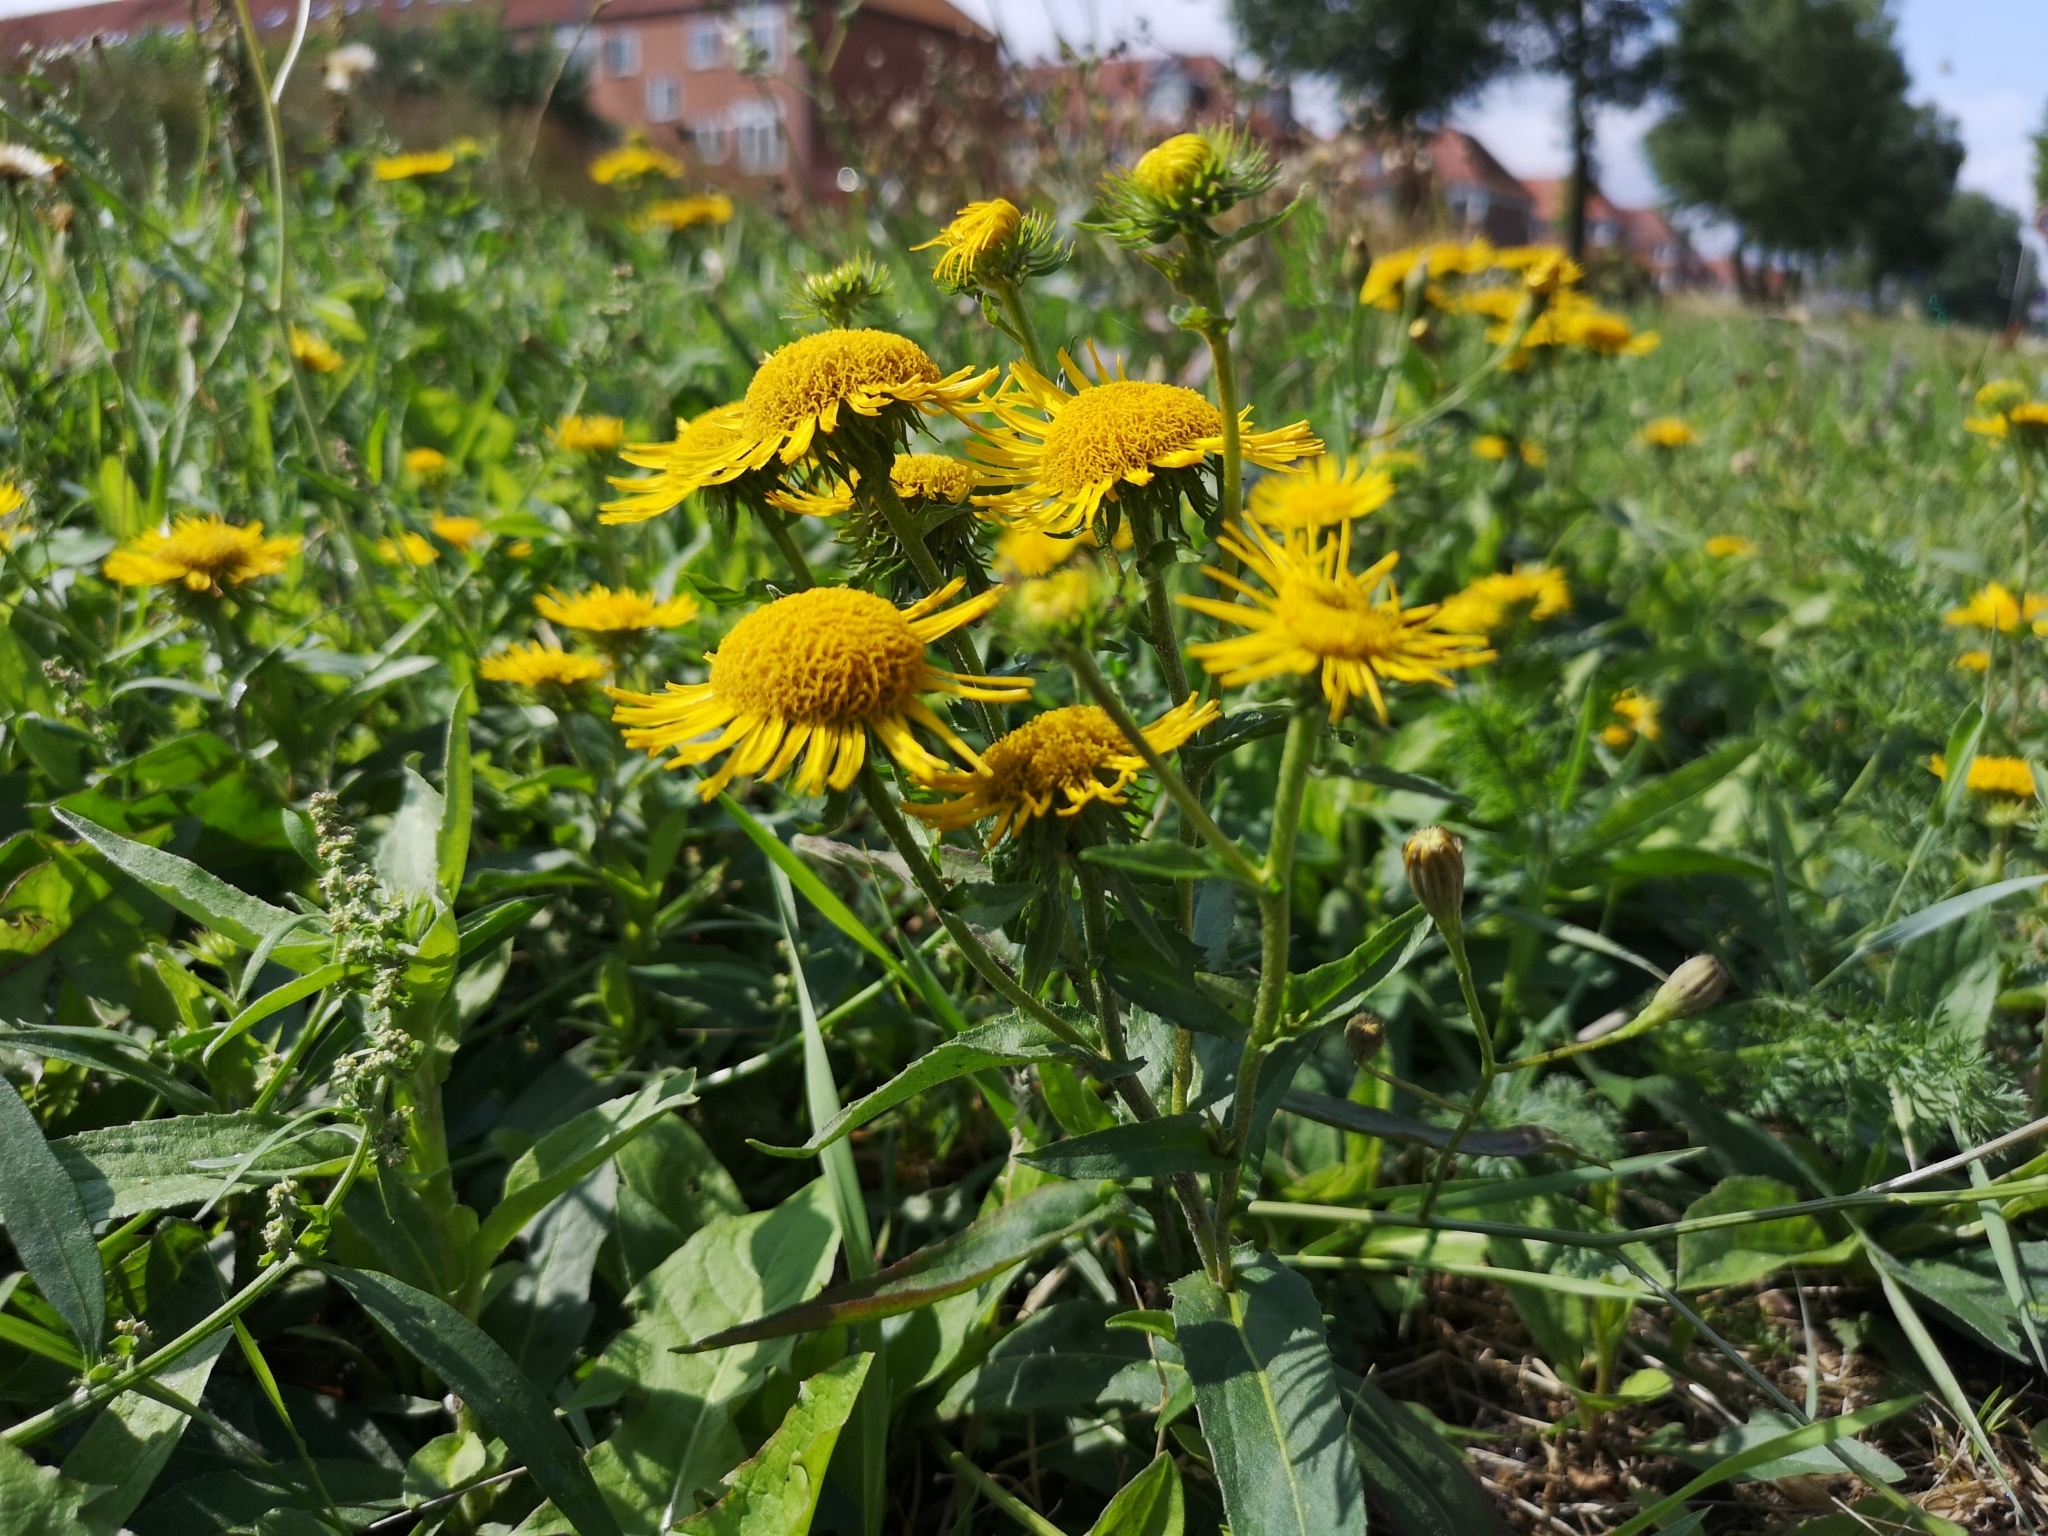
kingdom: Plantae
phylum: Tracheophyta
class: Magnoliopsida
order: Asterales
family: Asteraceae
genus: Pentanema
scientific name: Pentanema britannicum
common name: British elecampane
